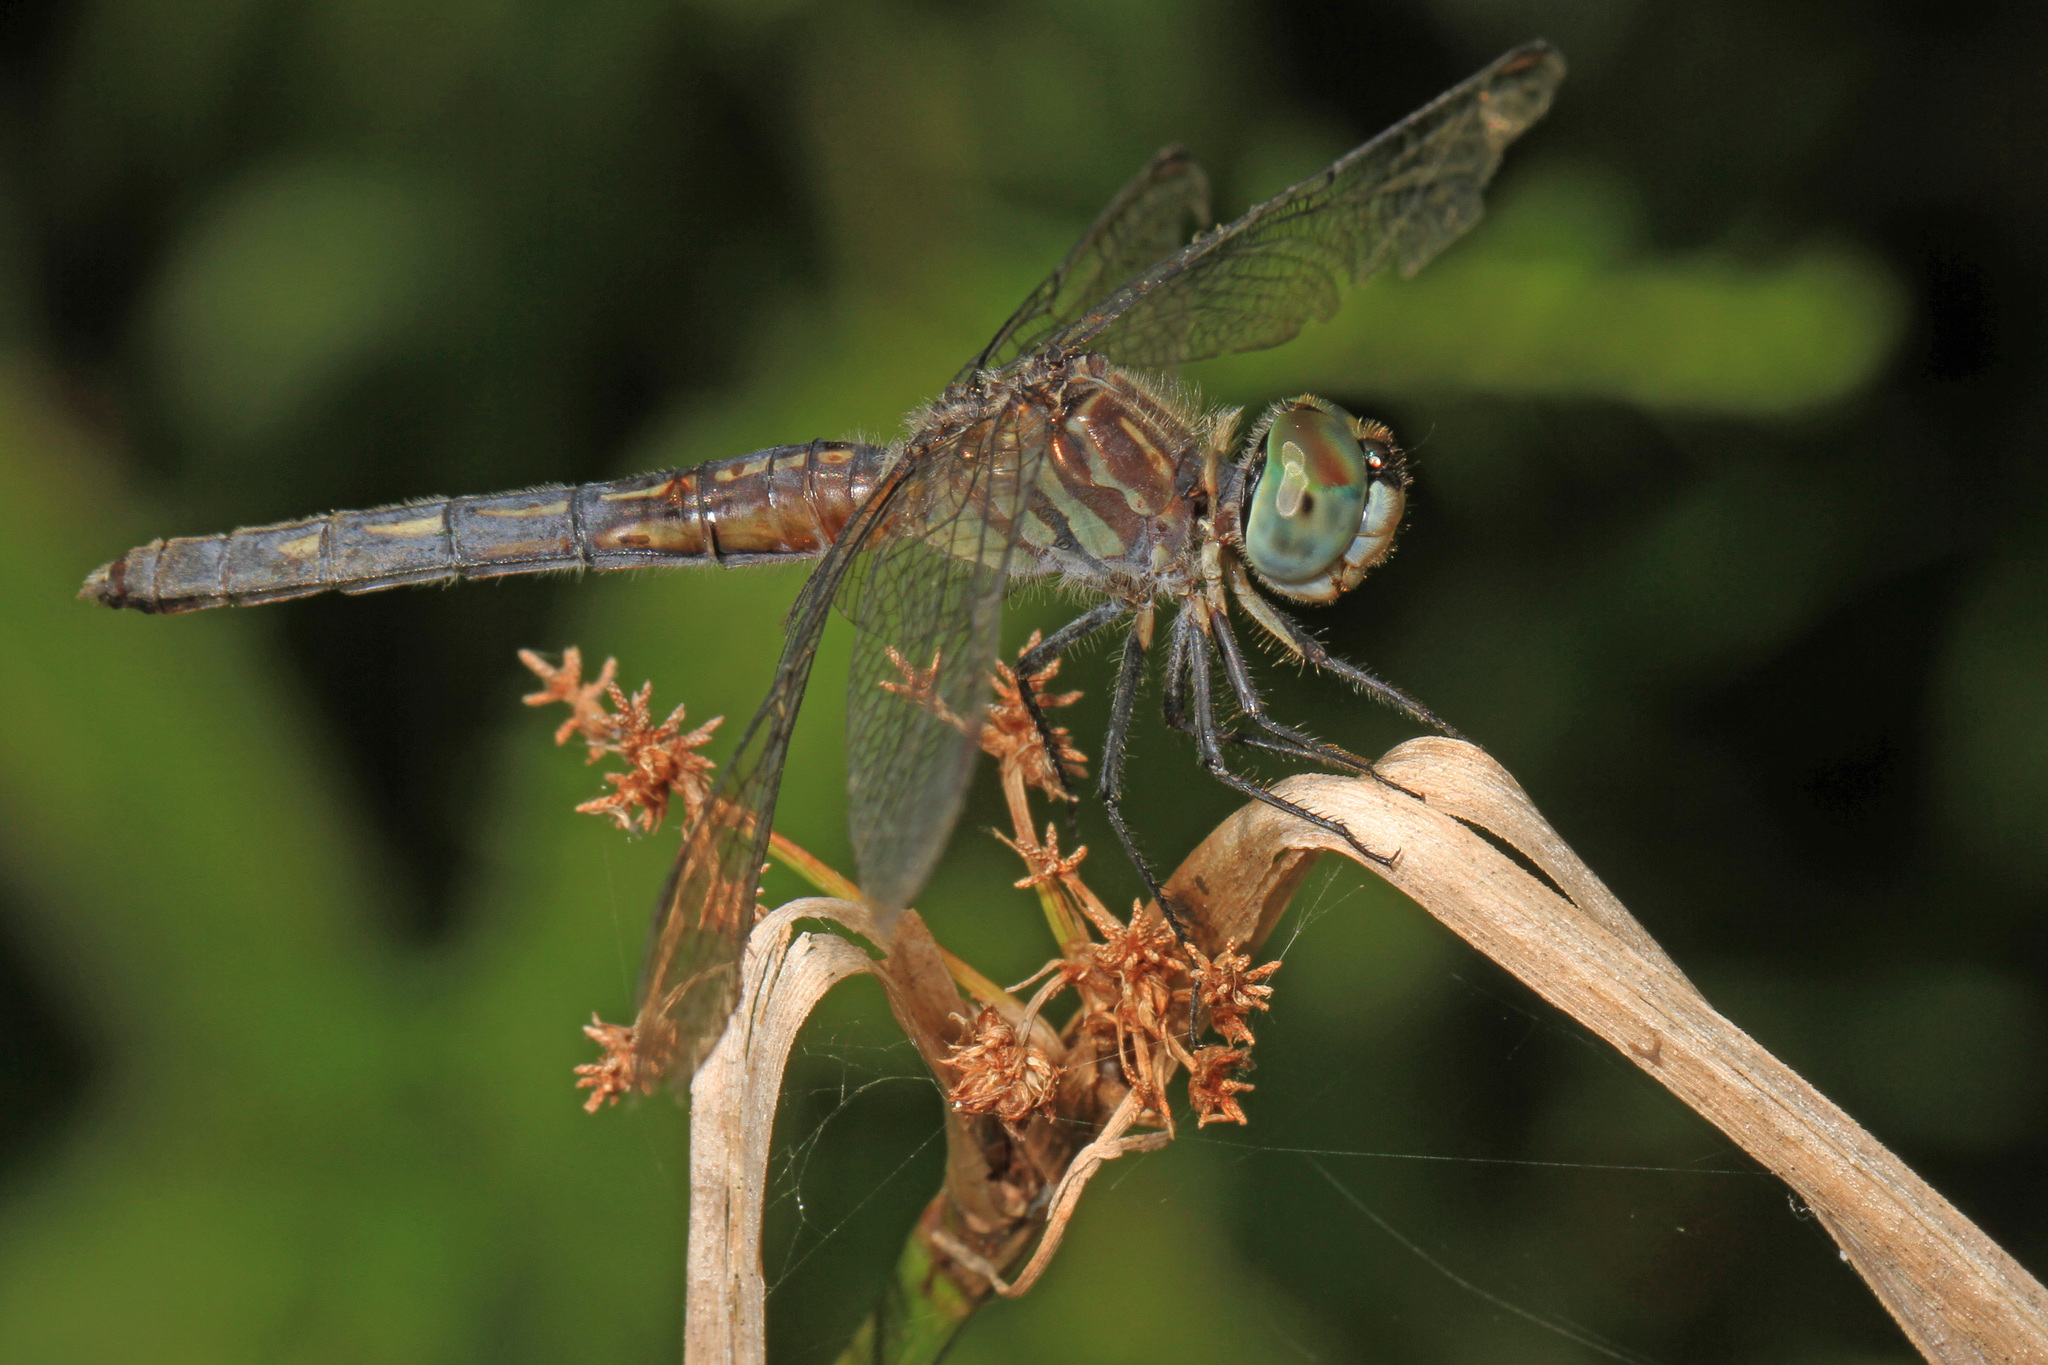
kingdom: Animalia
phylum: Arthropoda
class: Insecta
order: Odonata
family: Libellulidae
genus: Pachydiplax
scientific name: Pachydiplax longipennis
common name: Blue dasher
